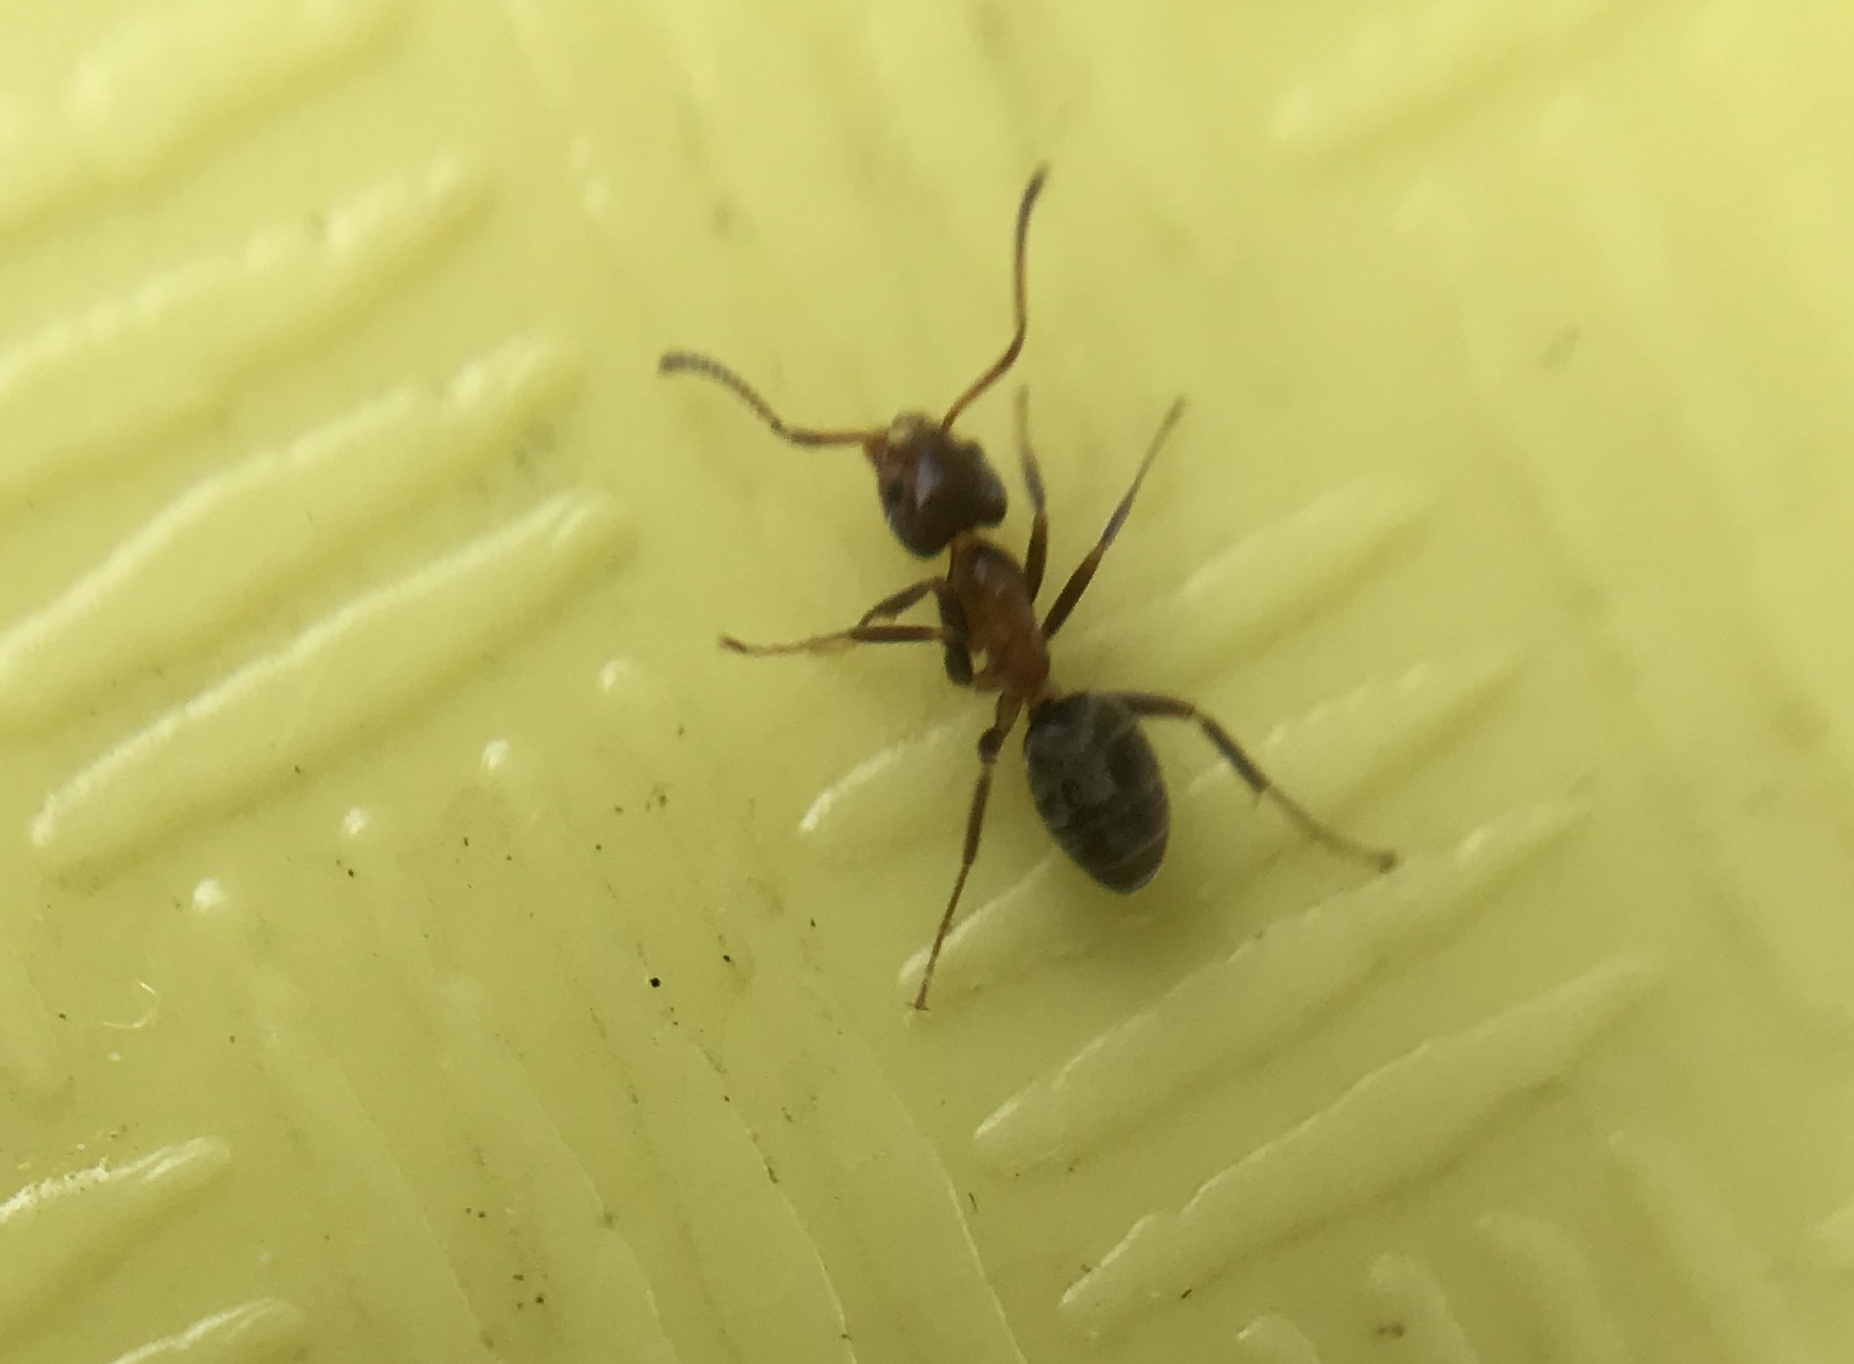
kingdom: Animalia
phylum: Arthropoda
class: Insecta
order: Hymenoptera
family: Formicidae
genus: Liometopum
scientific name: Liometopum occidentale
